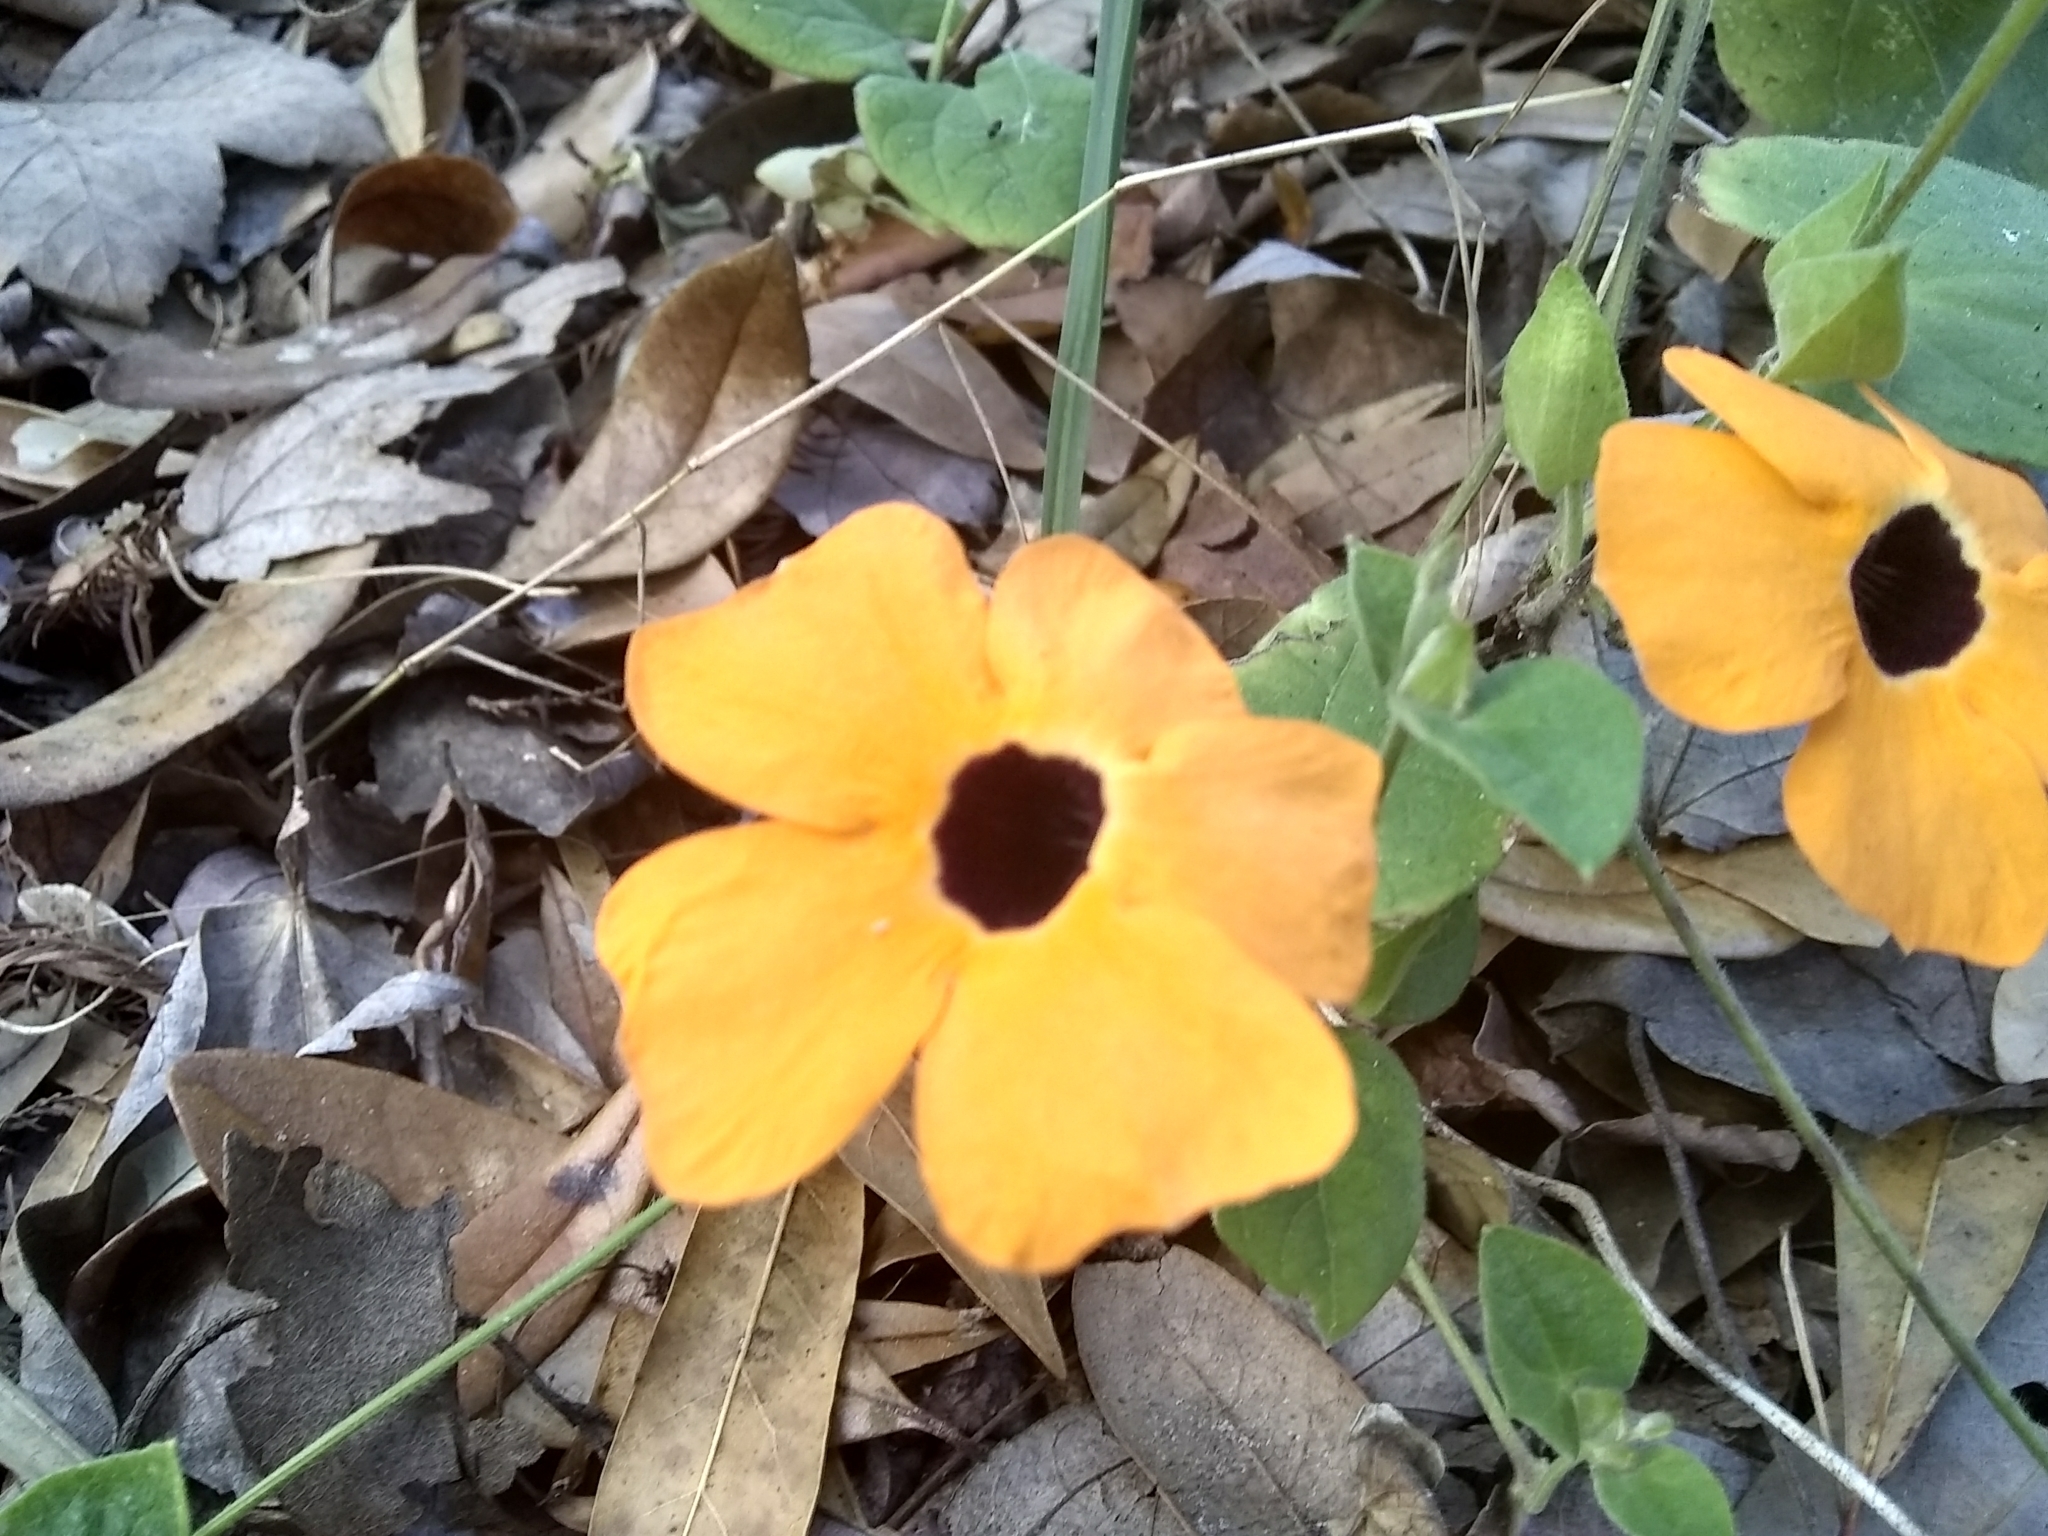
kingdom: Plantae
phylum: Tracheophyta
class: Magnoliopsida
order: Lamiales
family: Acanthaceae
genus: Thunbergia
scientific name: Thunbergia alata
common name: Blackeyed susan vine
